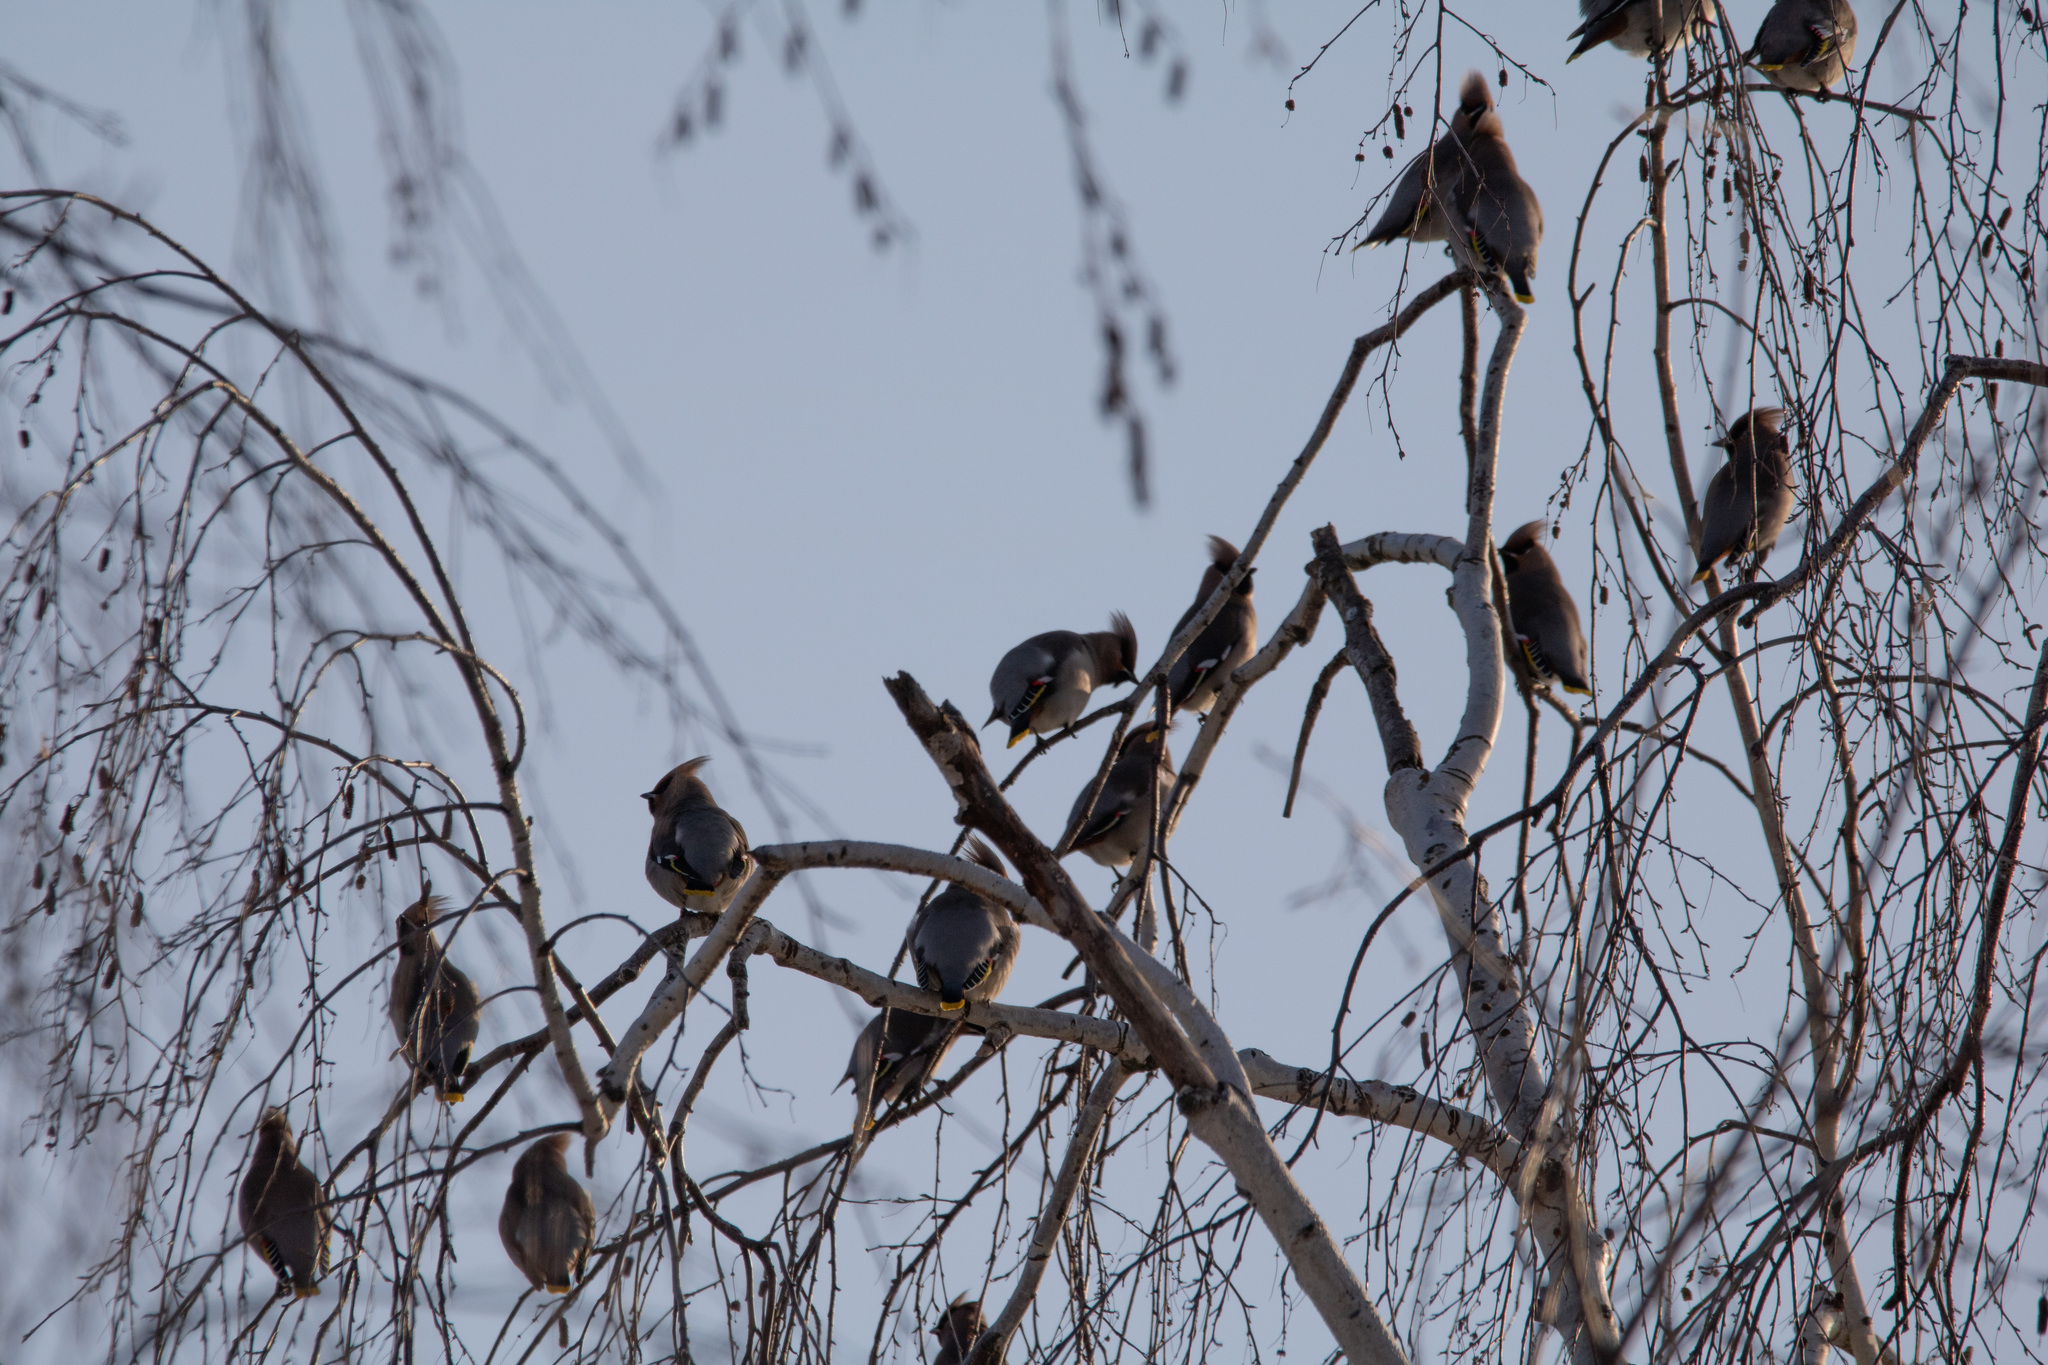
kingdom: Animalia
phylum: Chordata
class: Aves
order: Passeriformes
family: Bombycillidae
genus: Bombycilla
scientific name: Bombycilla garrulus
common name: Bohemian waxwing
